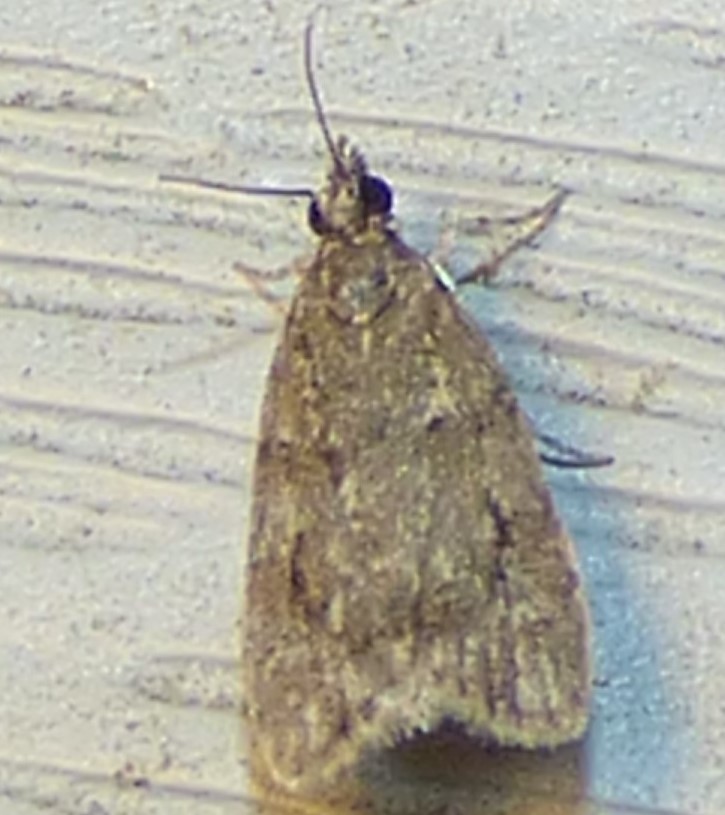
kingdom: Animalia
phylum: Arthropoda
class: Insecta
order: Lepidoptera
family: Crambidae
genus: Scoparia
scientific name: Scoparia basalis
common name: Many-spotted scoparia moth
